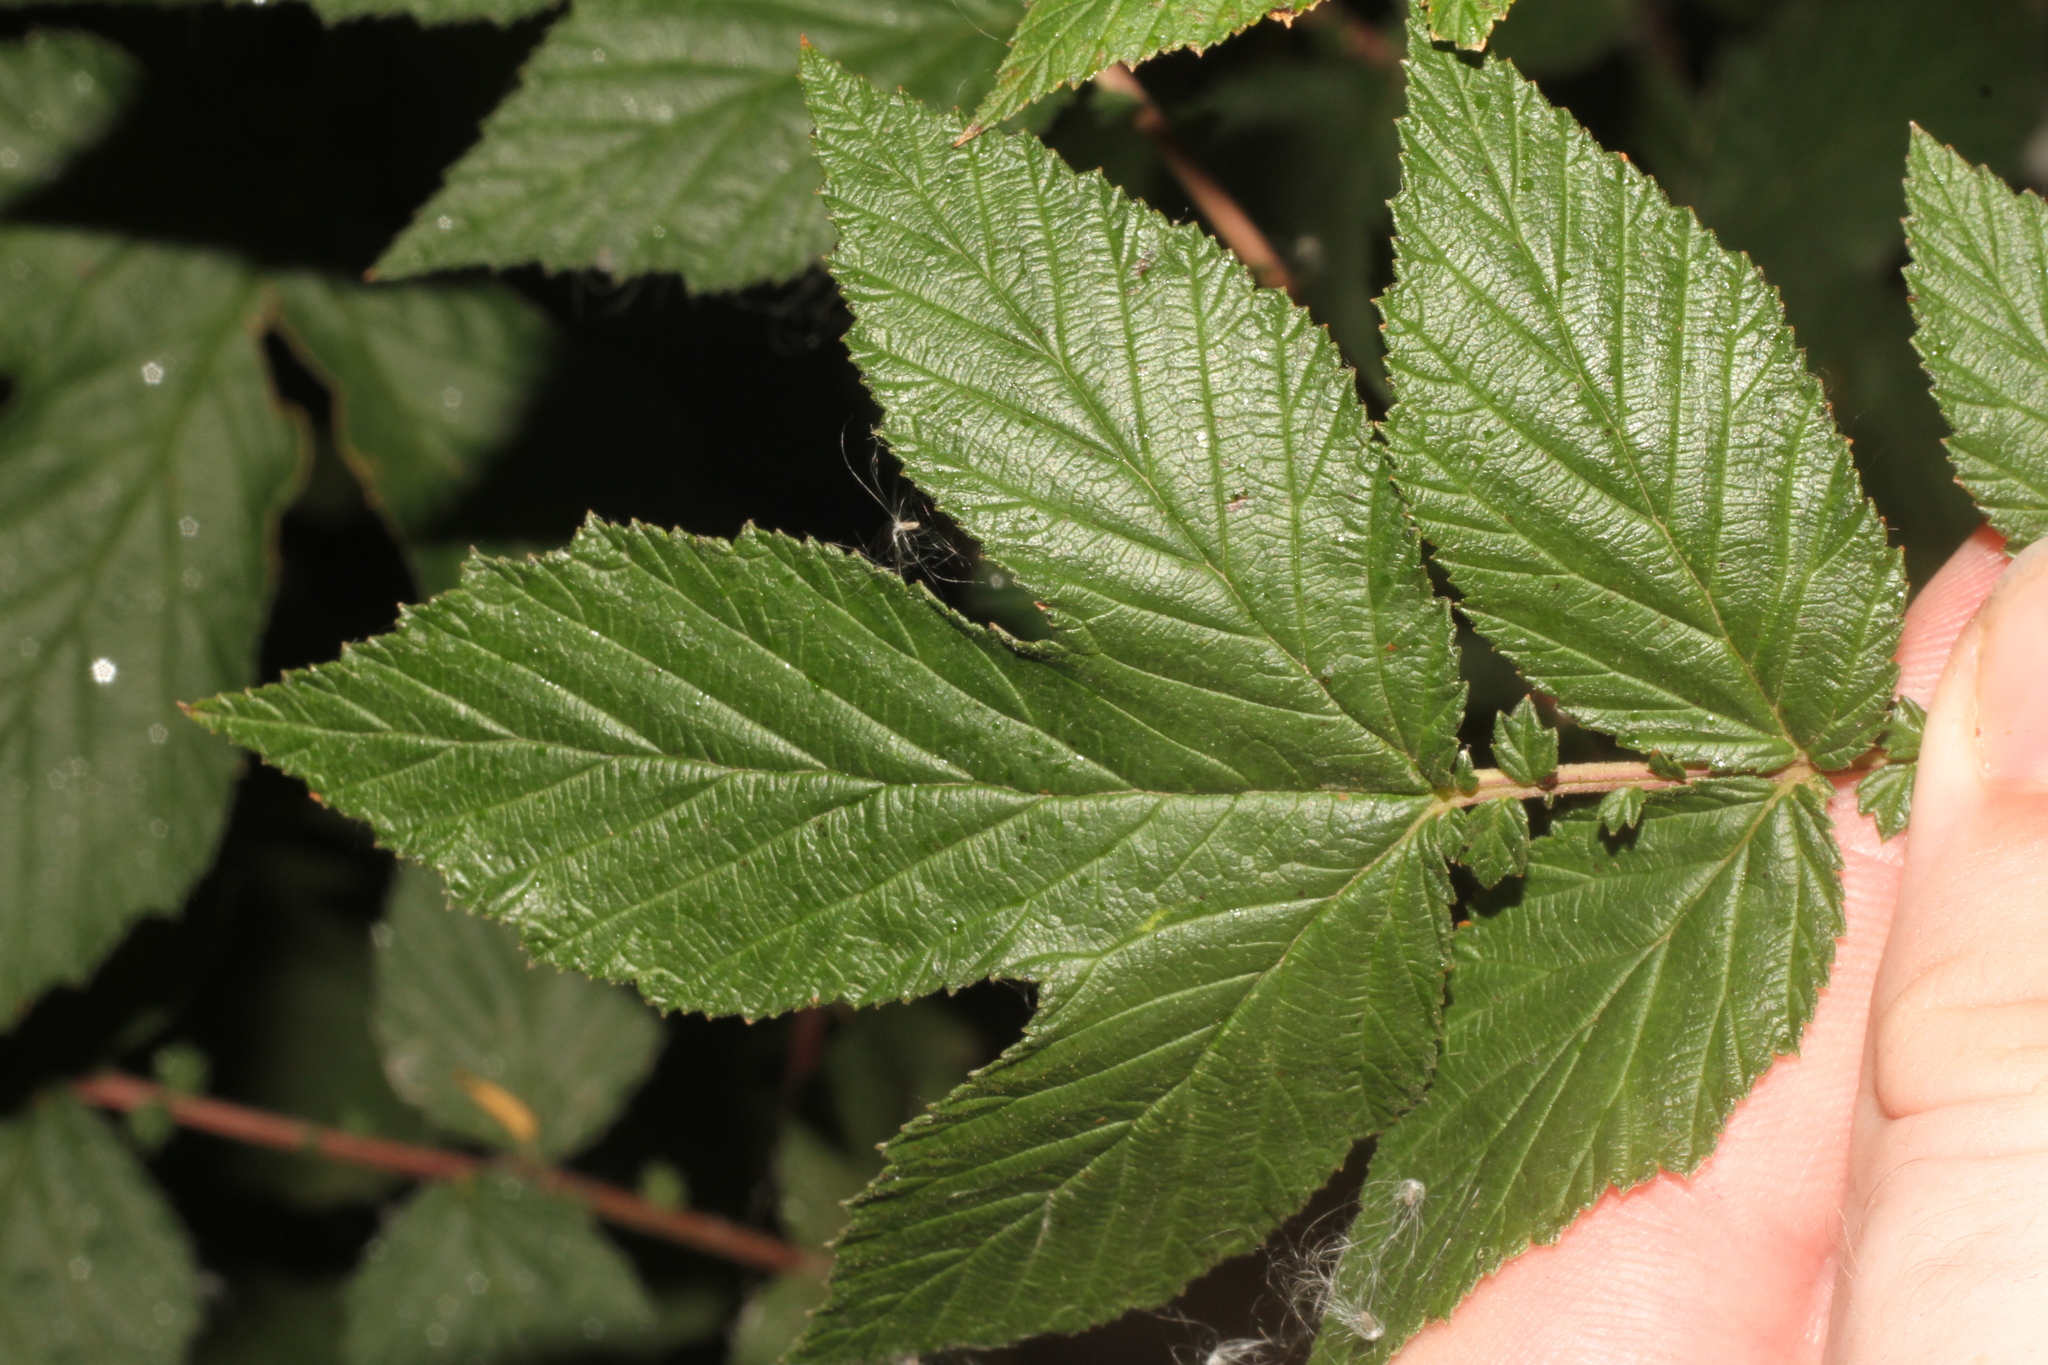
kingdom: Plantae
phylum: Tracheophyta
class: Magnoliopsida
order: Rosales
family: Rosaceae
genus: Filipendula
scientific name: Filipendula ulmaria
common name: Meadowsweet
